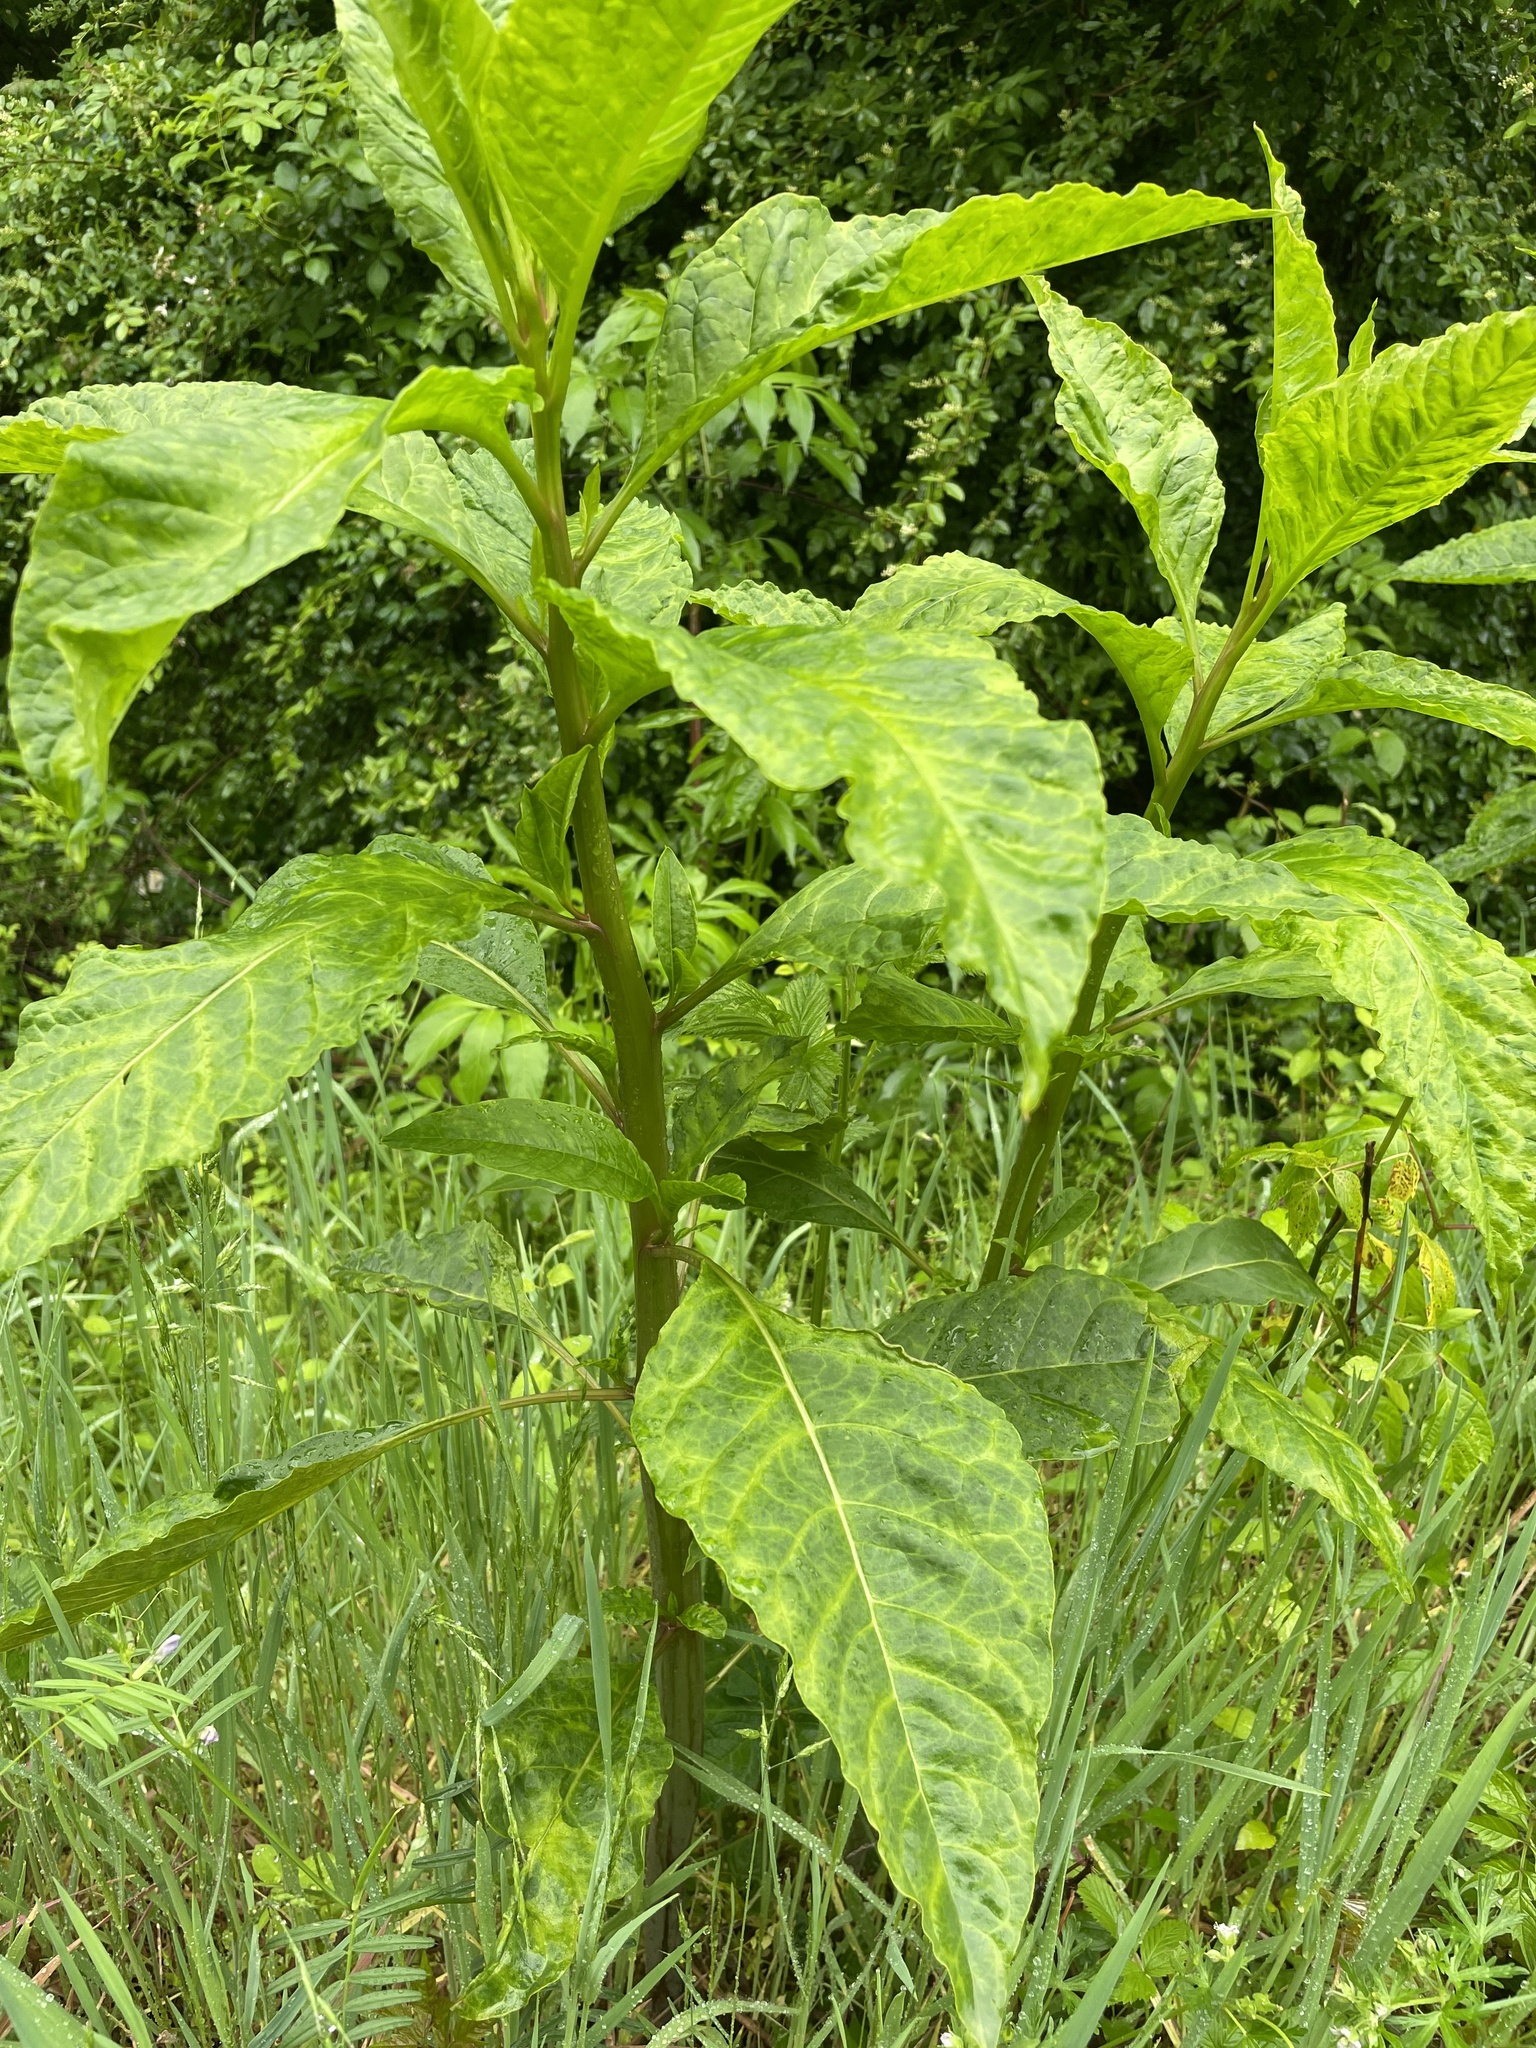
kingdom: Viruses
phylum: Pisuviricota
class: Stelpaviricetes
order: Patatavirales
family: Potyviridae
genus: Potyvirus
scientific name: Potyvirus Pokeweed mosaic virus
